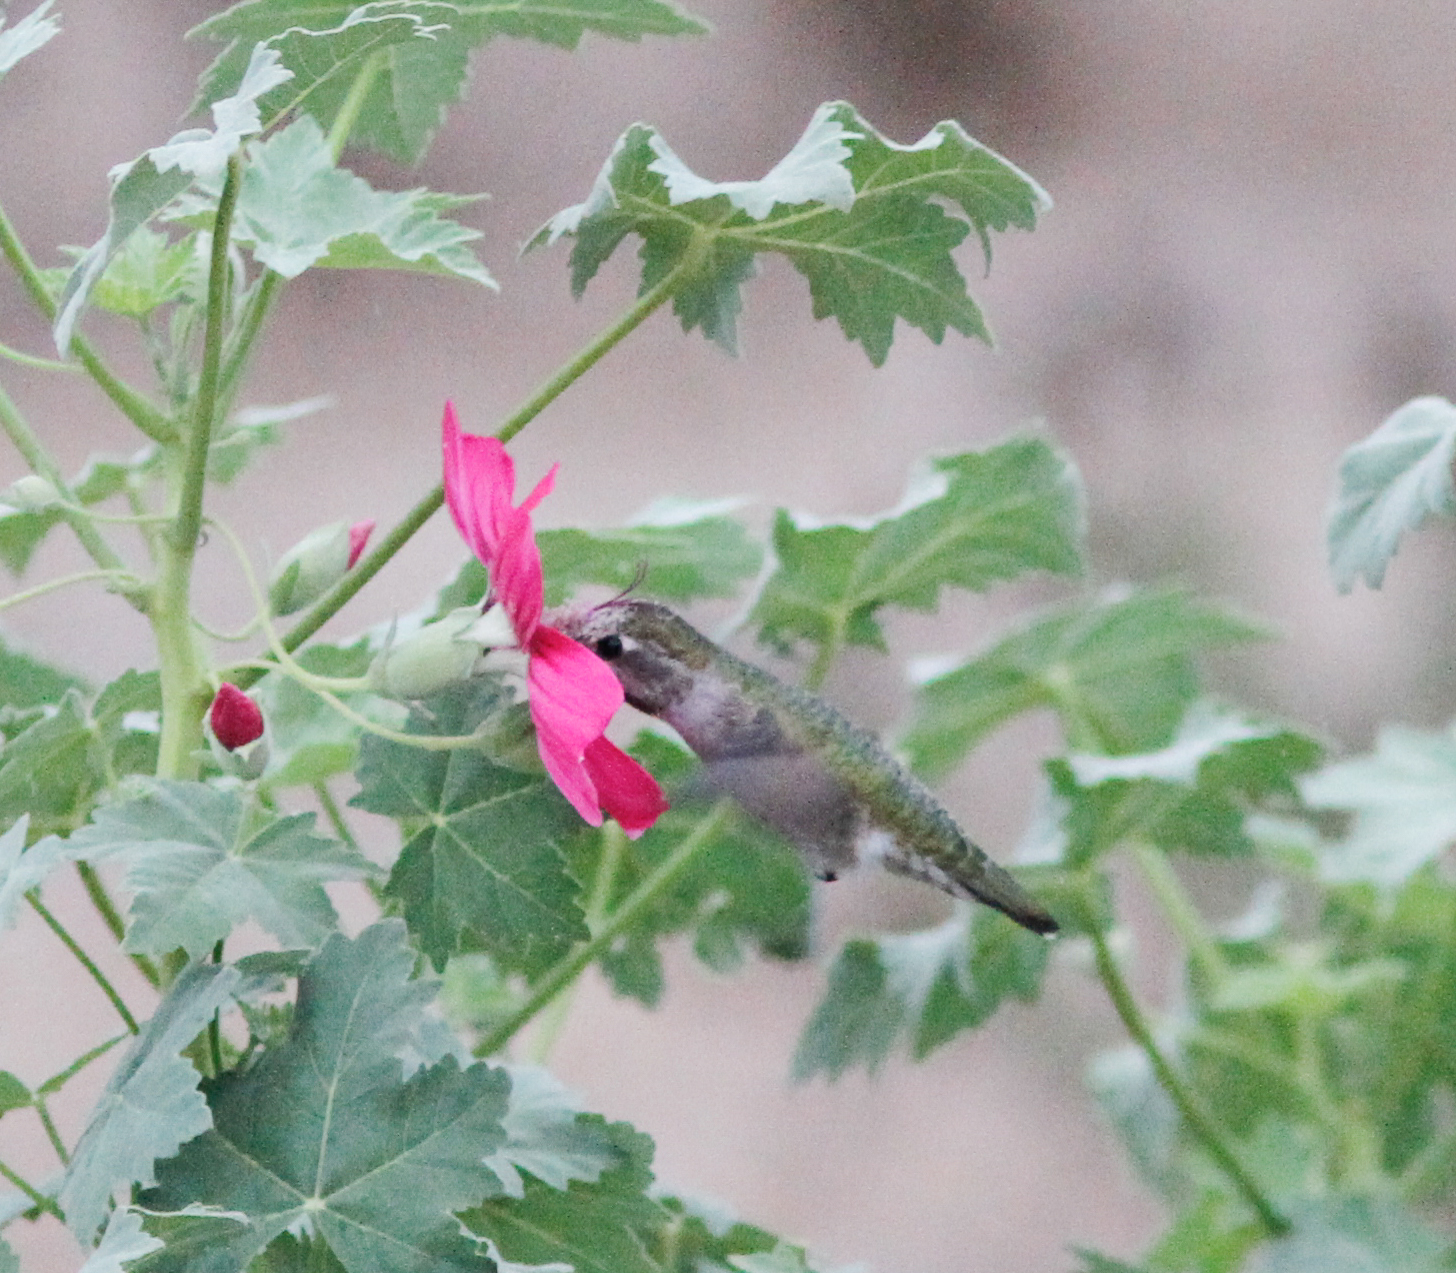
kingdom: Animalia
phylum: Chordata
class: Aves
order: Apodiformes
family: Trochilidae
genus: Calypte
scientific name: Calypte anna
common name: Anna's hummingbird
